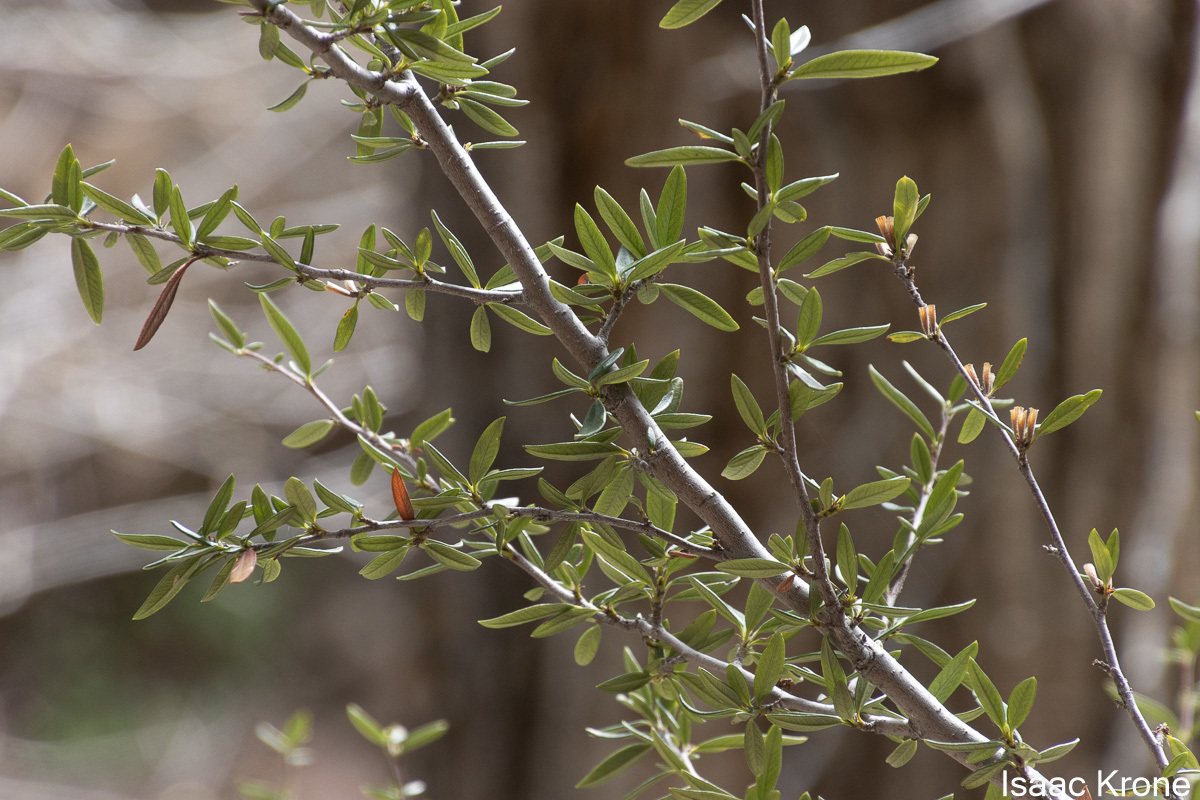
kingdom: Plantae
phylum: Tracheophyta
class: Magnoliopsida
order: Rosales
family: Rosaceae
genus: Cercocarpus
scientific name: Cercocarpus ledifolius
